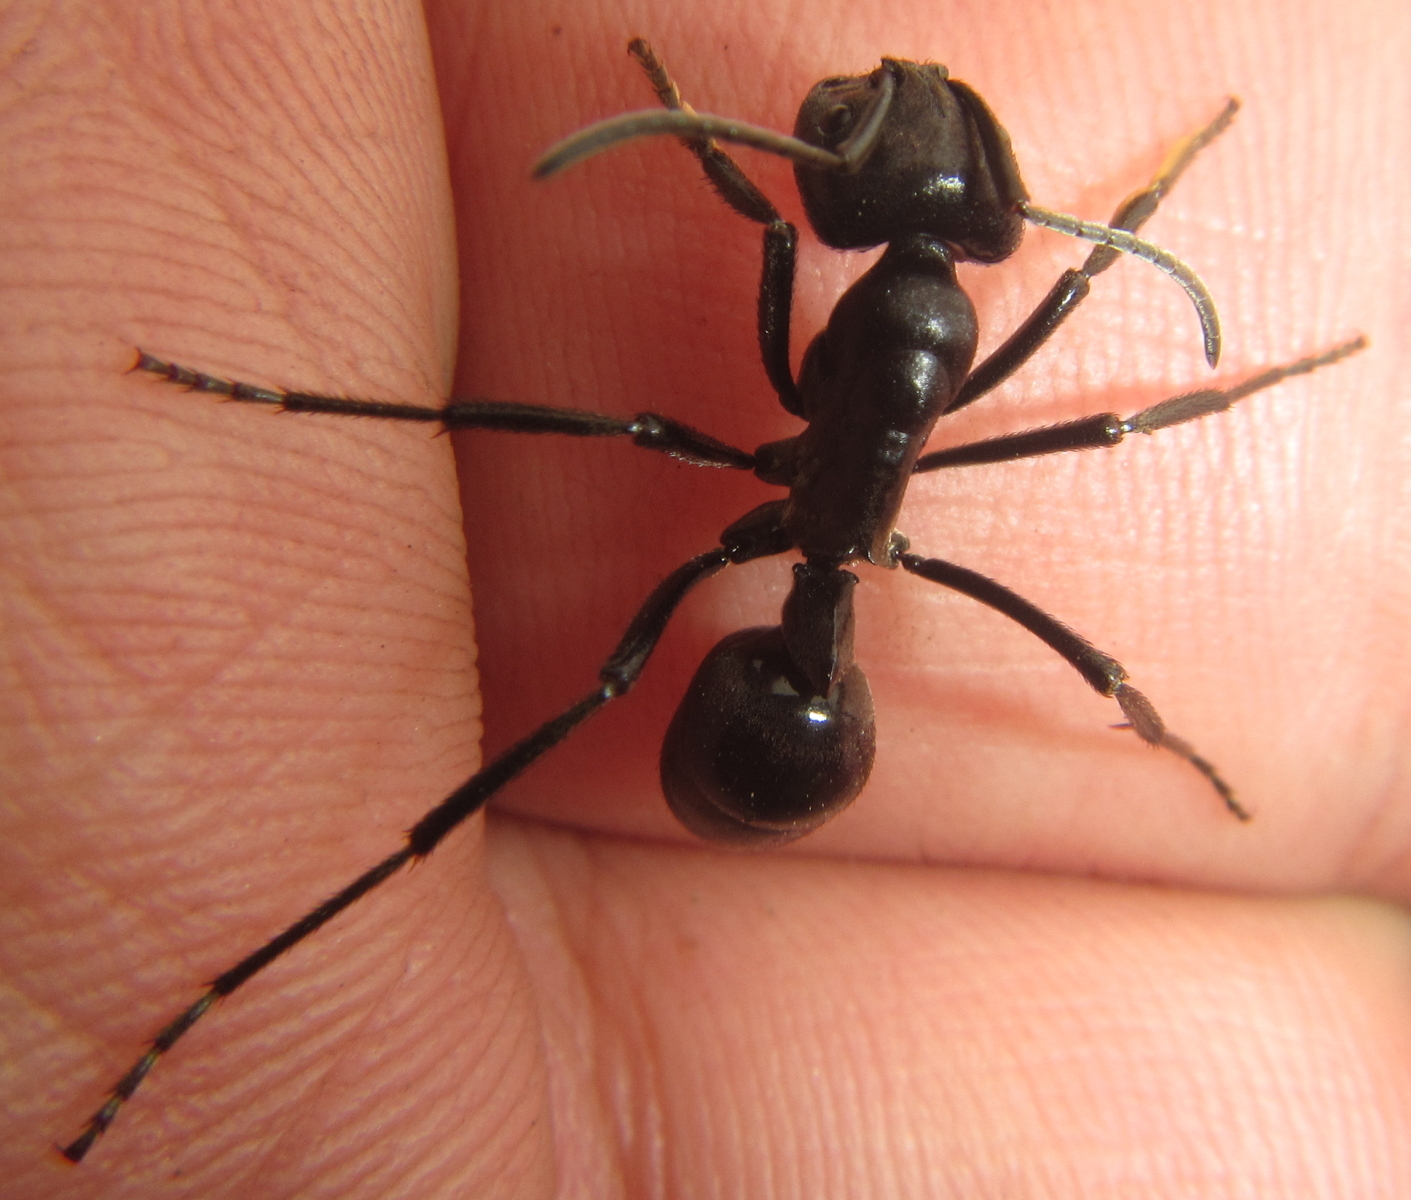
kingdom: Animalia
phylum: Arthropoda
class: Insecta
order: Hymenoptera
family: Formicidae
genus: Streblognathus
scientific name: Streblognathus peetersi
